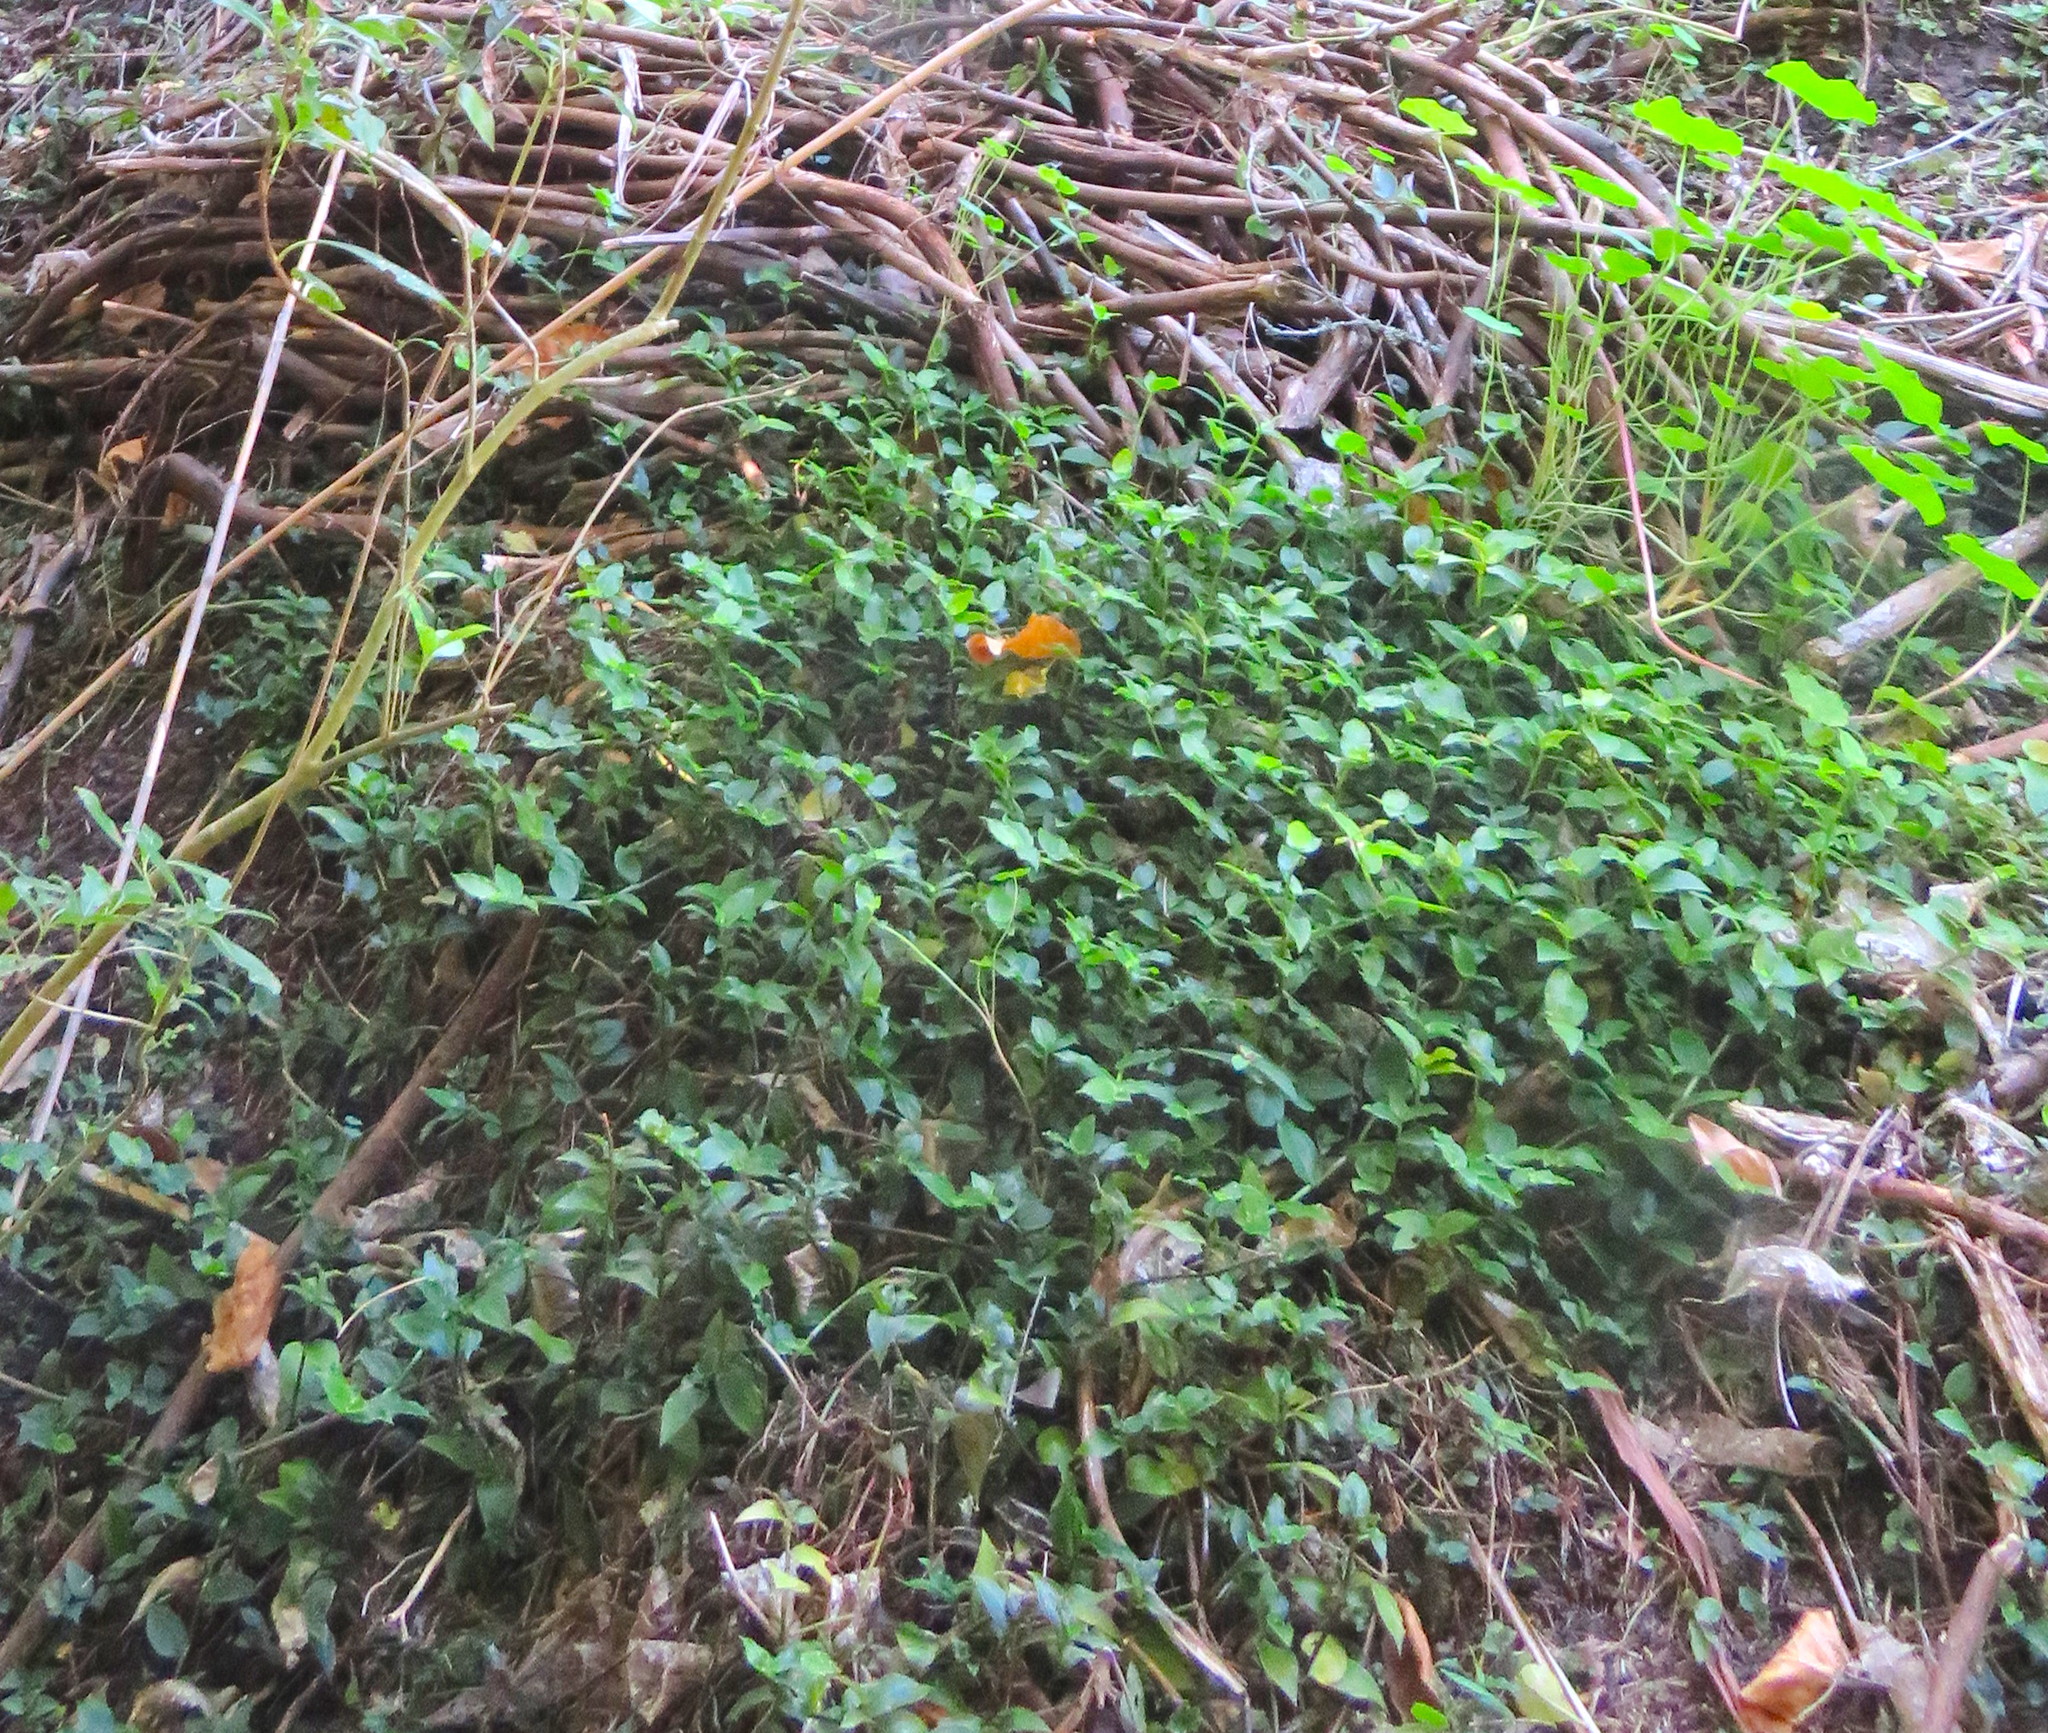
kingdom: Plantae
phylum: Tracheophyta
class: Liliopsida
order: Commelinales
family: Commelinaceae
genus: Tradescantia
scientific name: Tradescantia fluminensis
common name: Wandering-jew
